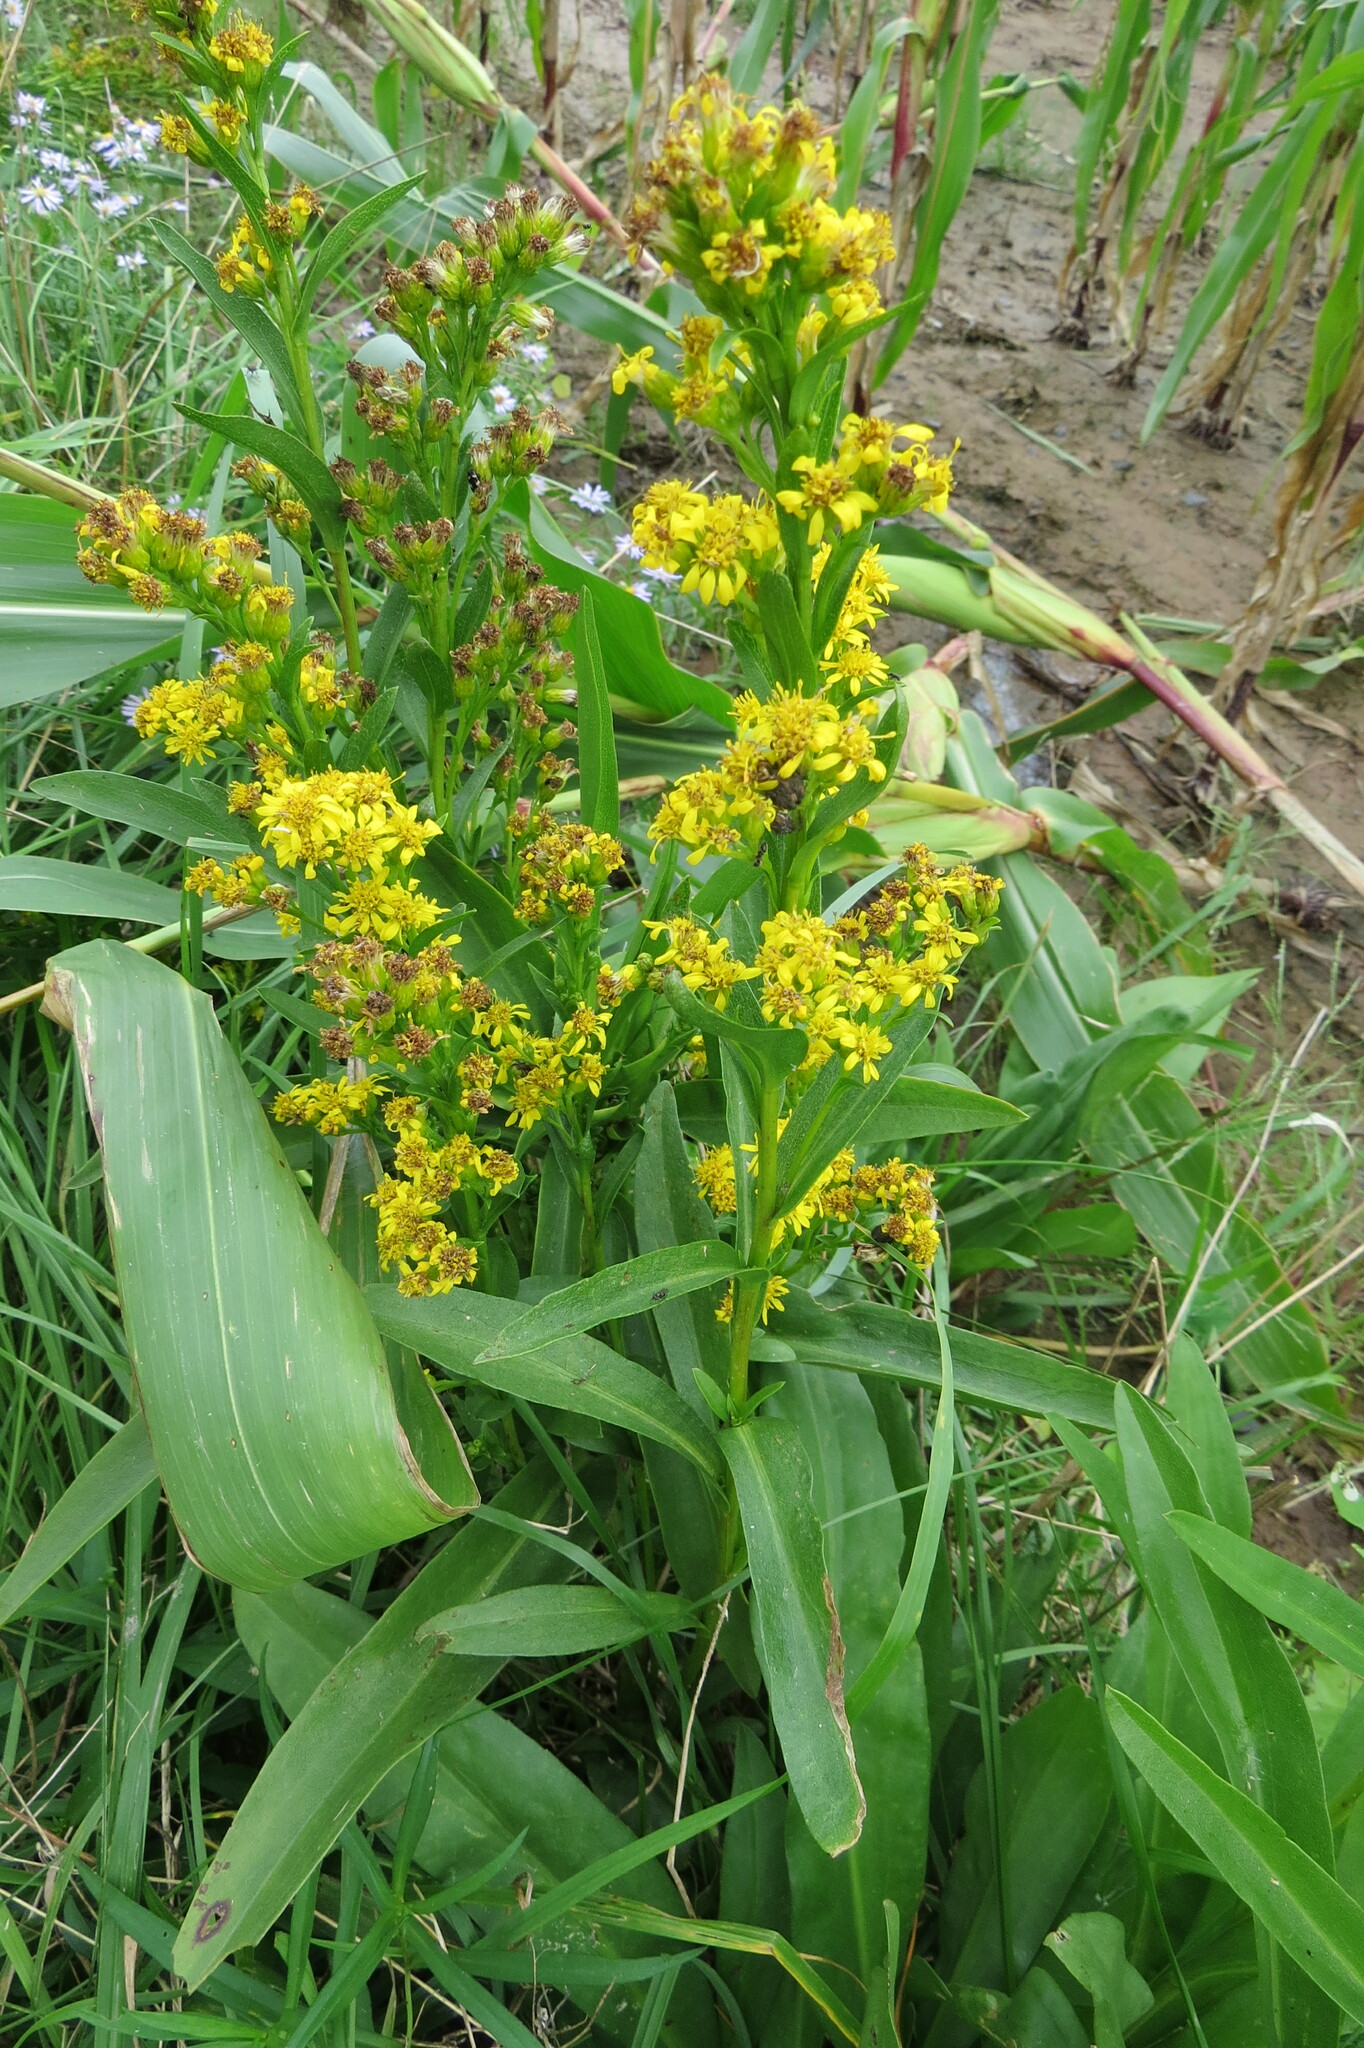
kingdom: Plantae
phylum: Tracheophyta
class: Magnoliopsida
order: Asterales
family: Asteraceae
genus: Solidago
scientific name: Solidago sempervirens
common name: Salt-marsh goldenrod
